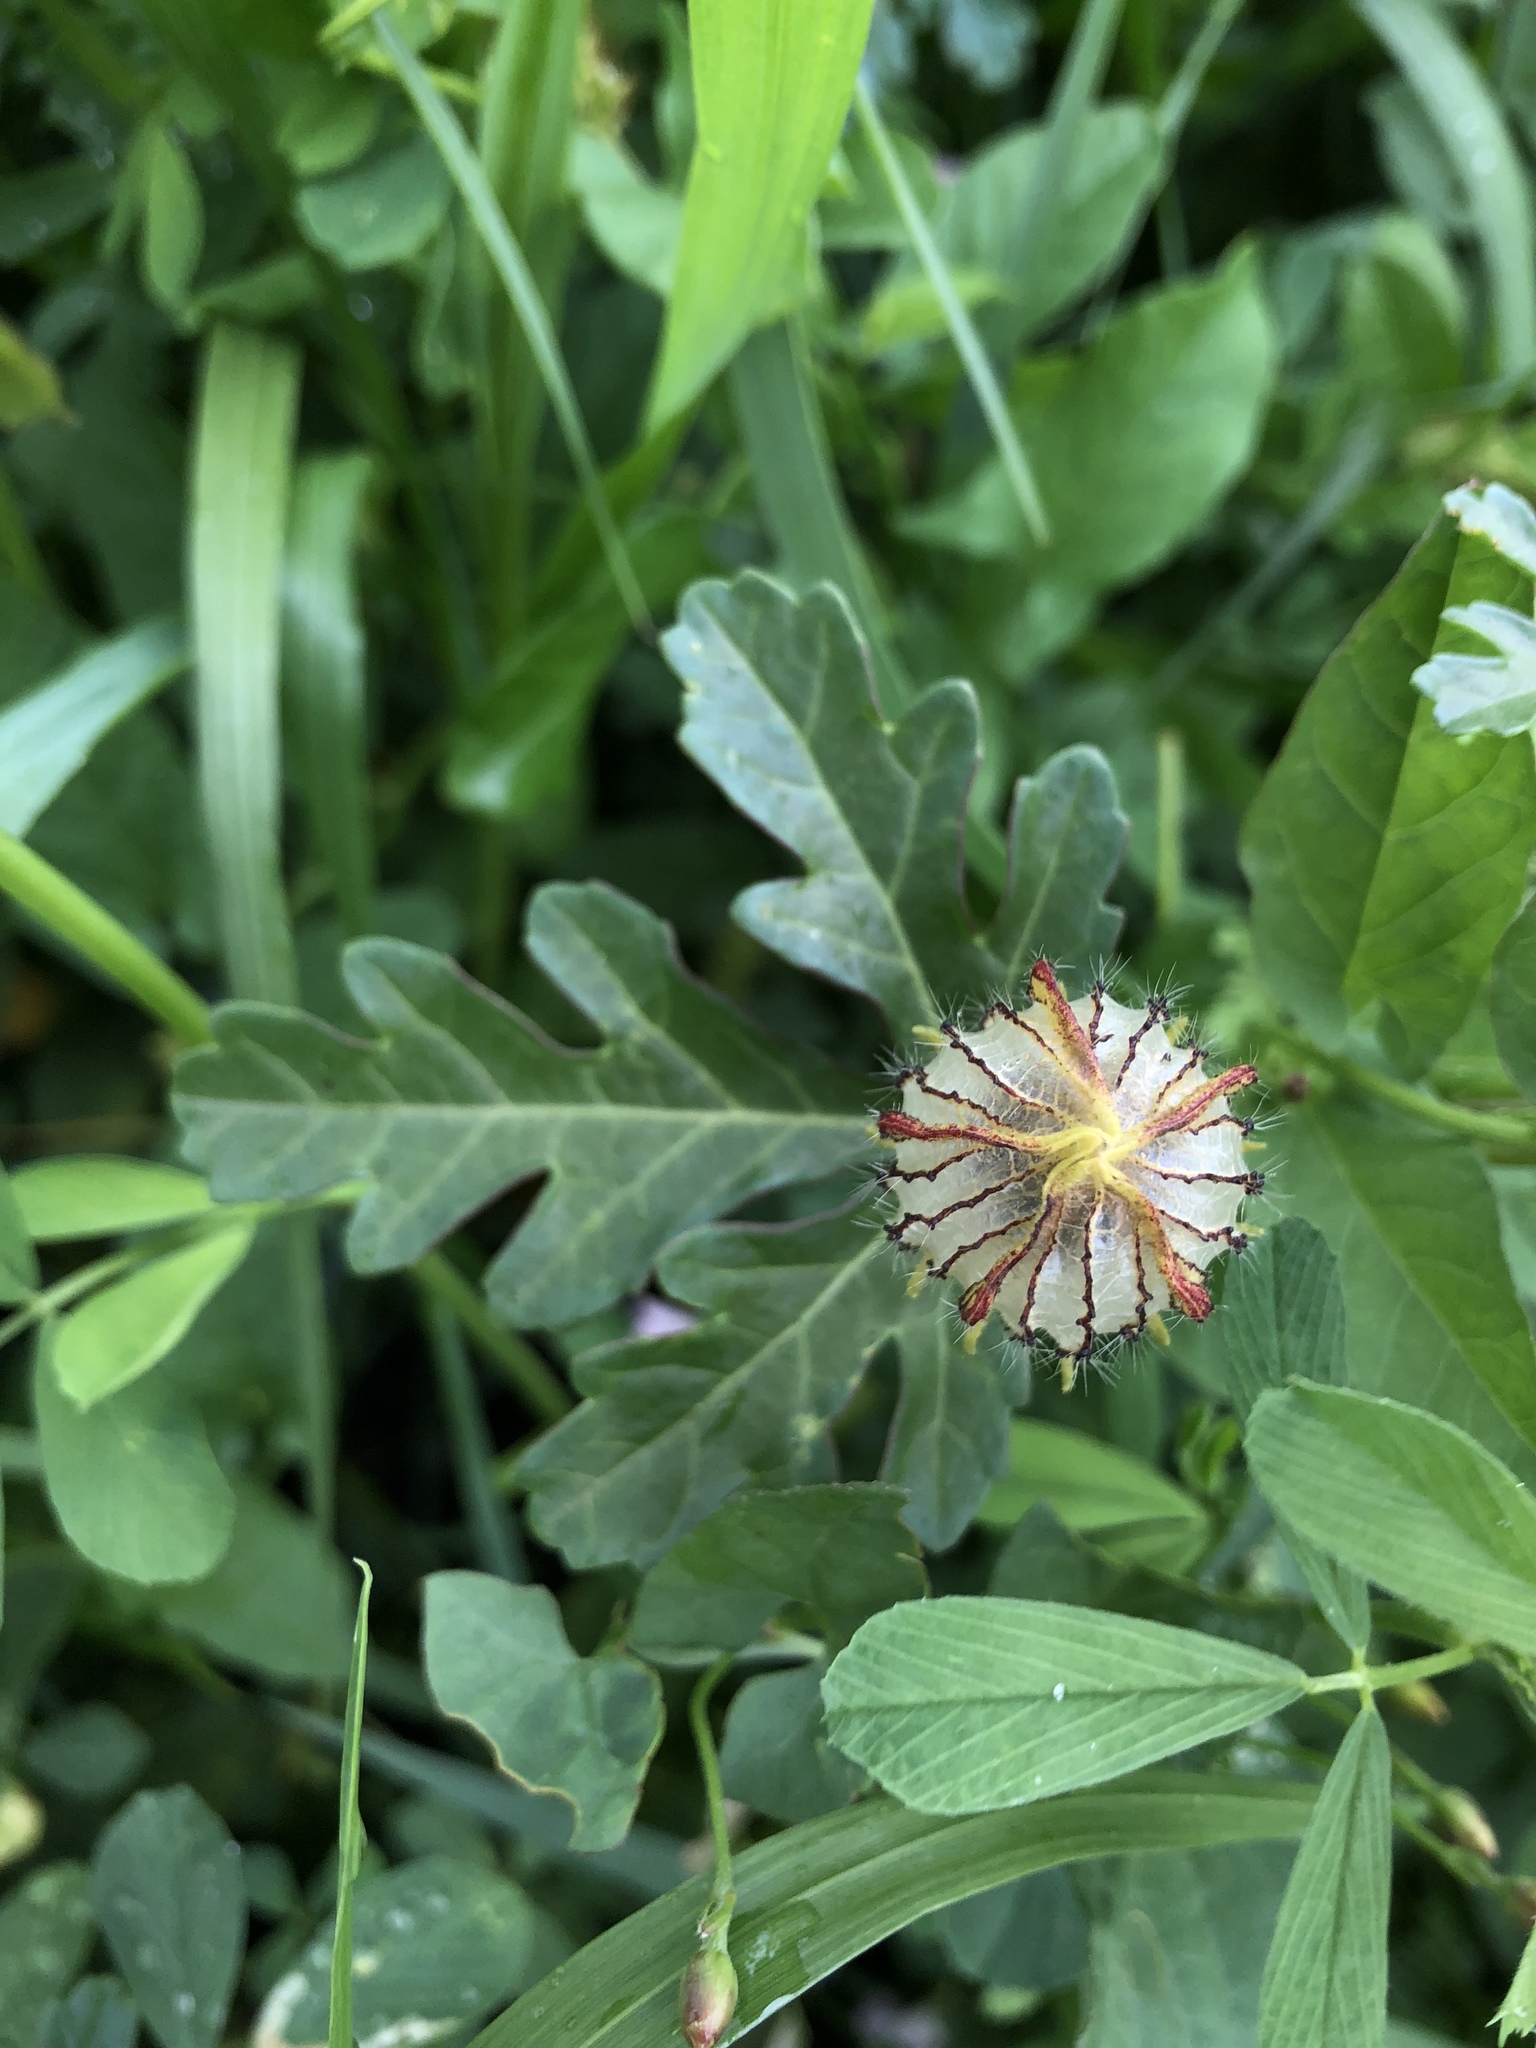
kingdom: Plantae
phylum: Tracheophyta
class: Magnoliopsida
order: Malvales
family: Malvaceae
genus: Hibiscus
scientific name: Hibiscus trionum
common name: Bladder ketmia
